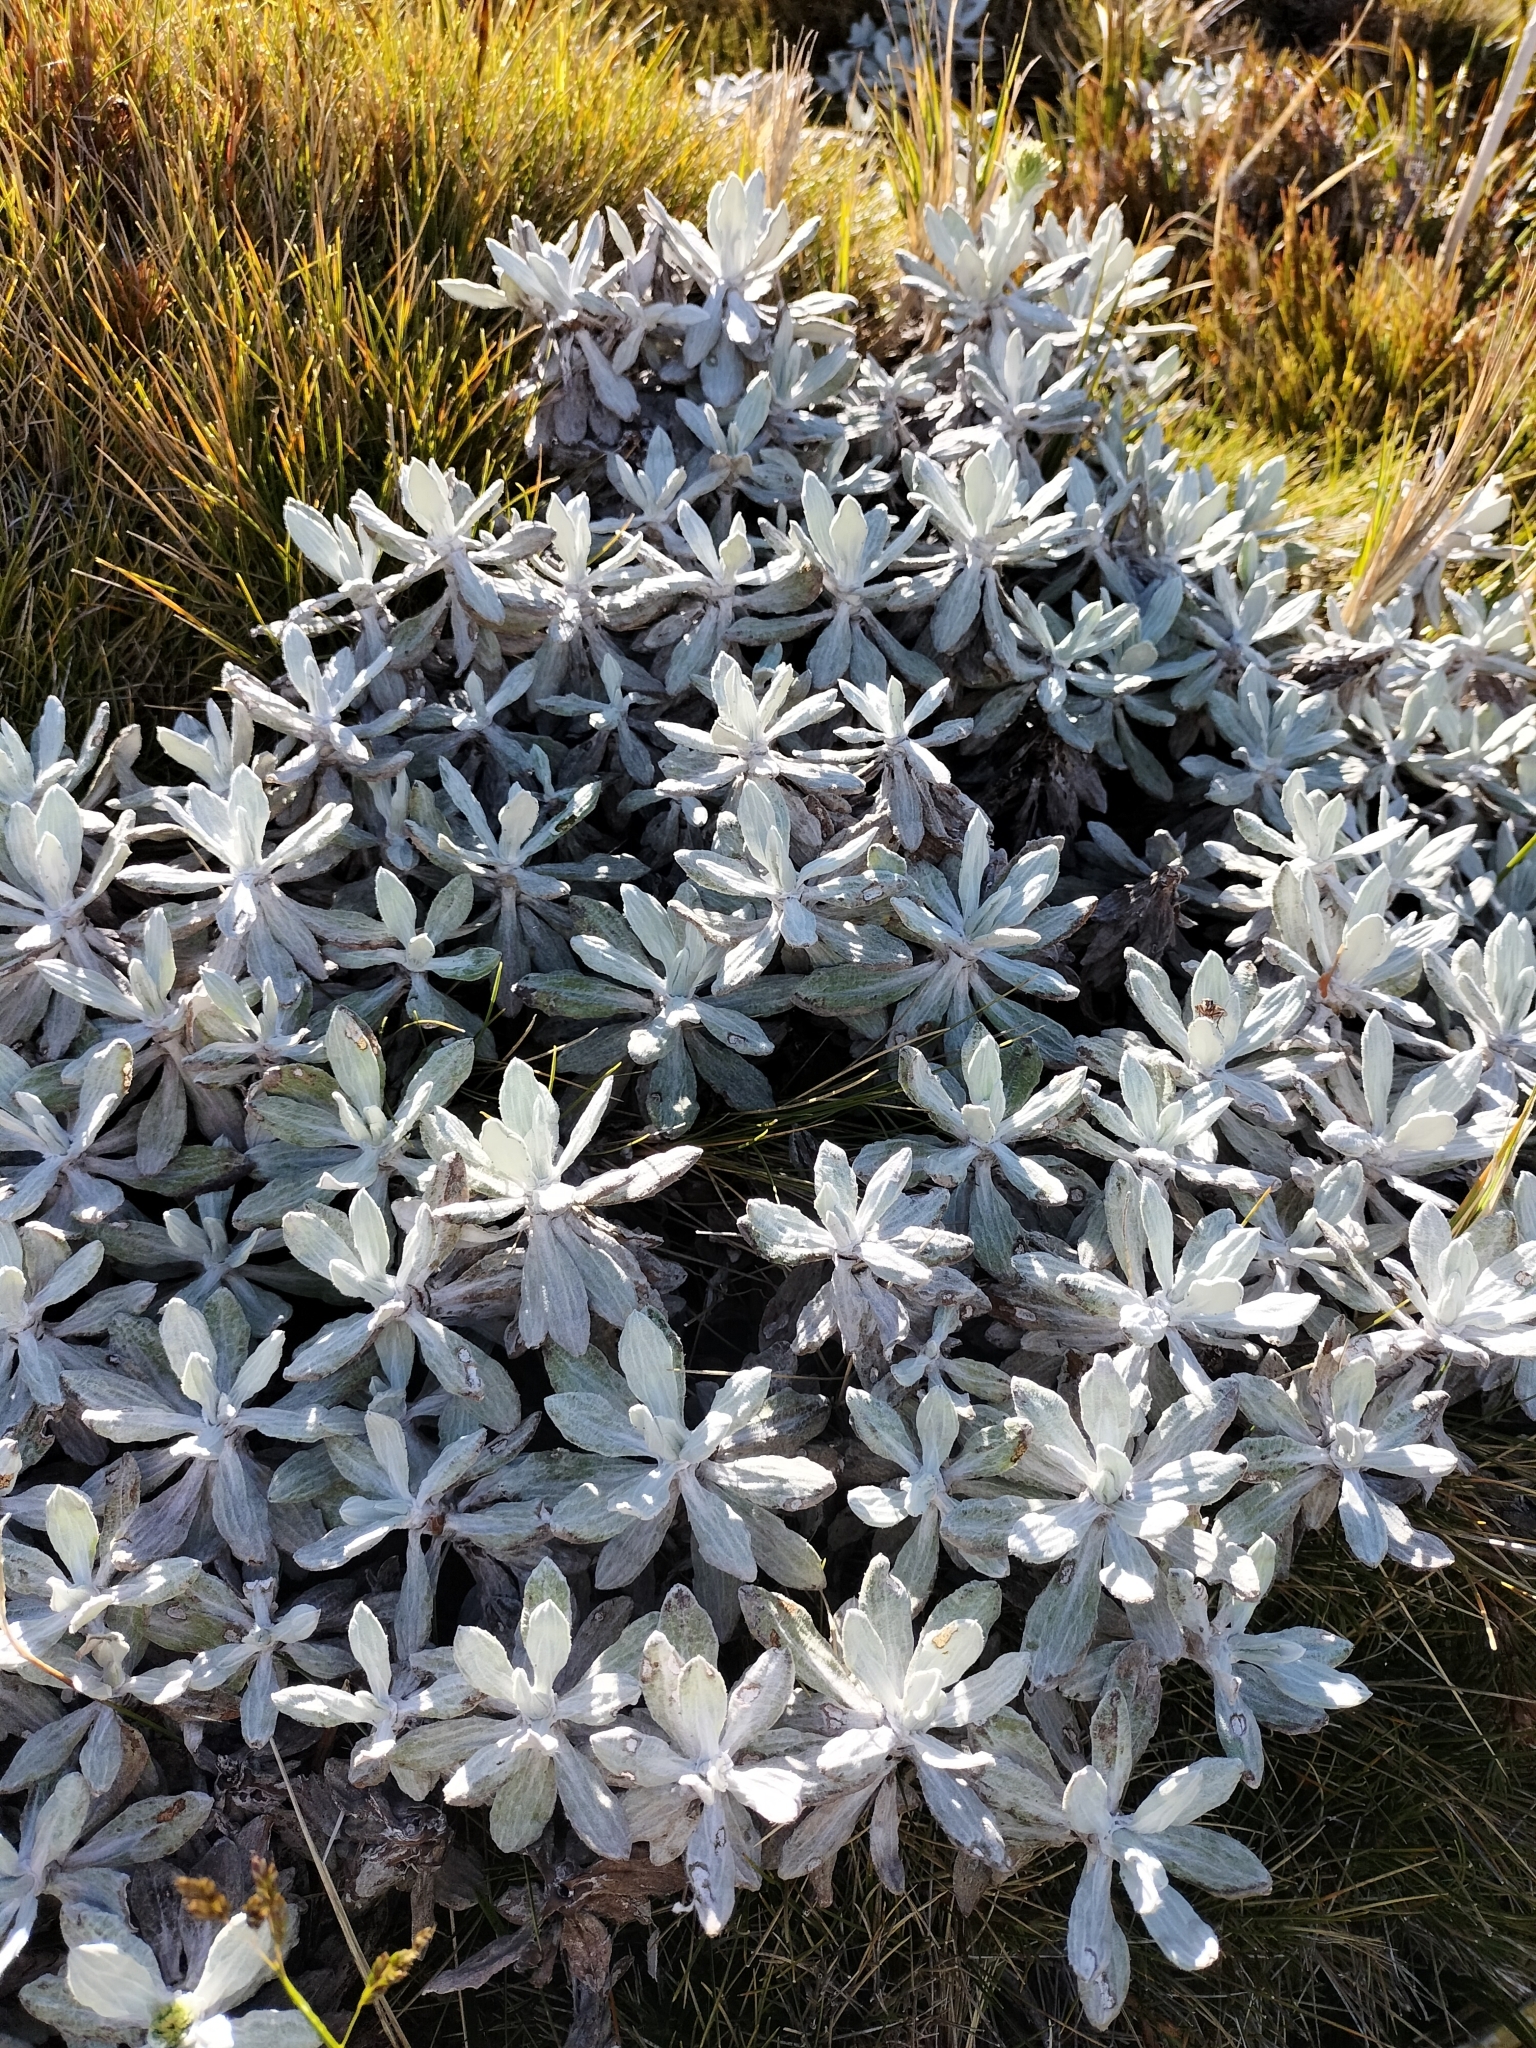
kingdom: Plantae
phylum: Tracheophyta
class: Magnoliopsida
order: Asterales
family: Asteraceae
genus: Celmisia
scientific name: Celmisia incana
